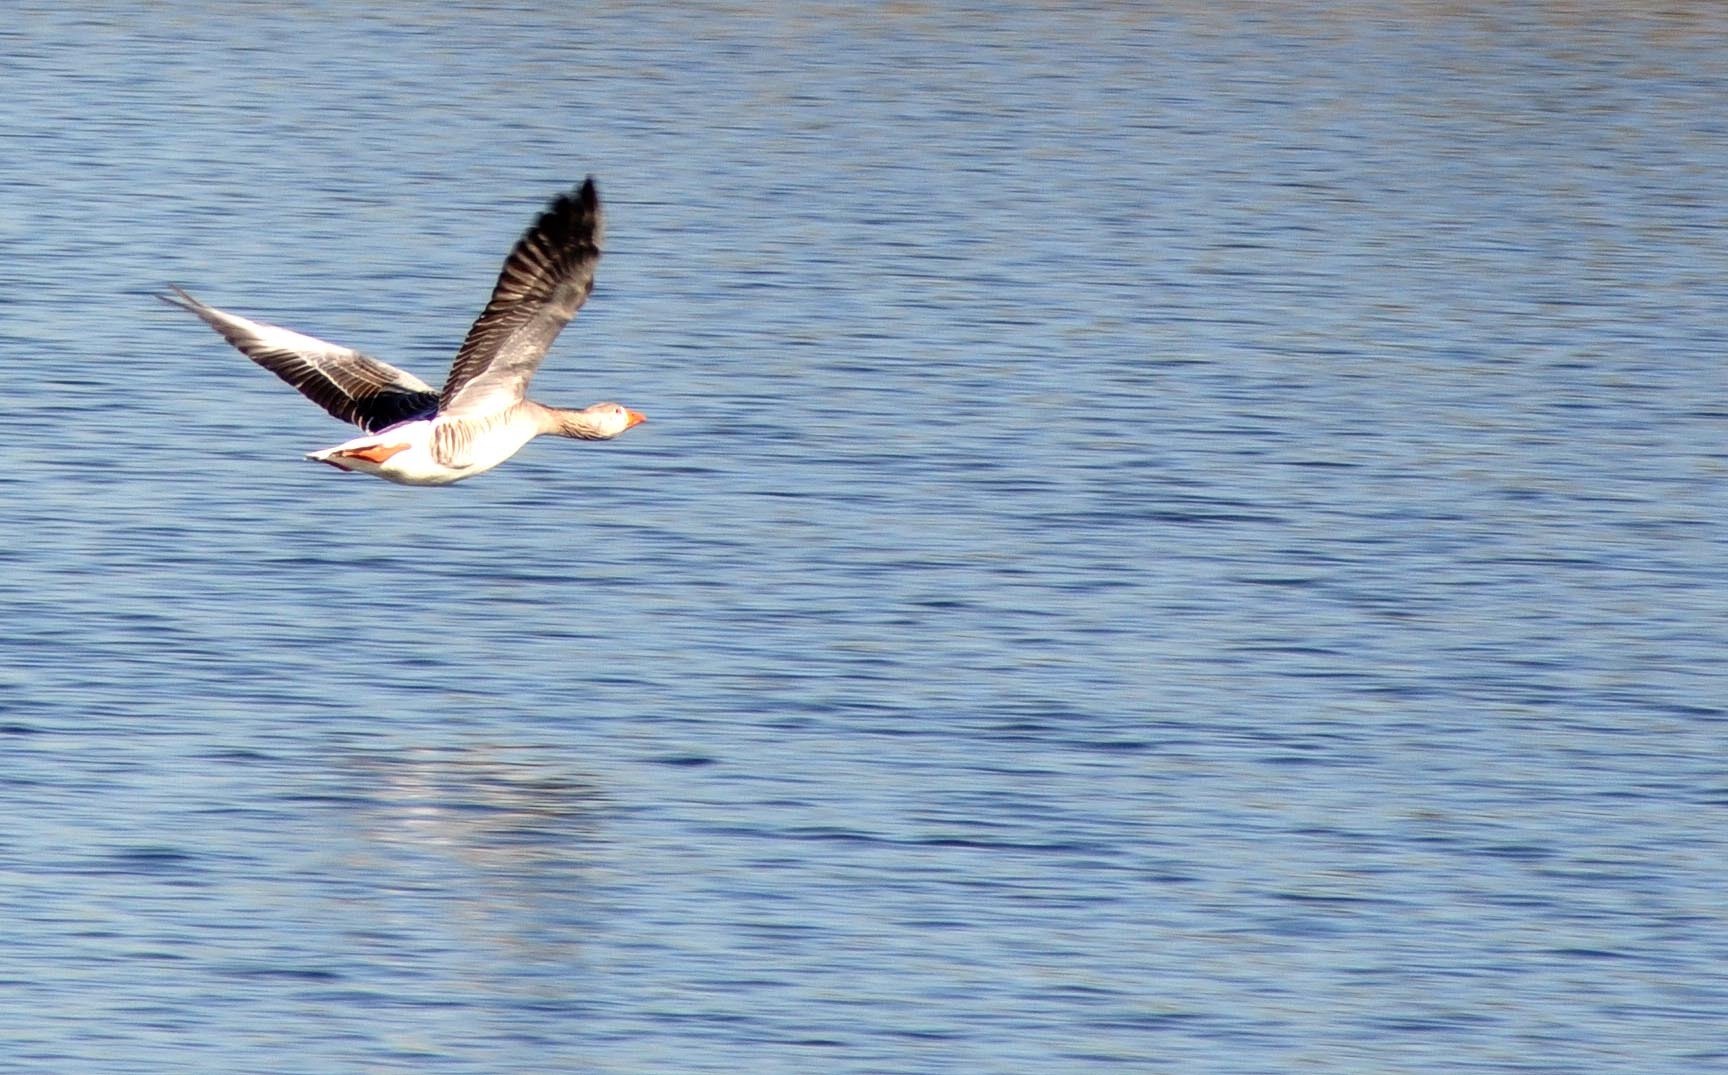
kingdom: Animalia
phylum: Chordata
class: Aves
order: Anseriformes
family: Anatidae
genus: Anser
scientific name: Anser anser
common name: Greylag goose
